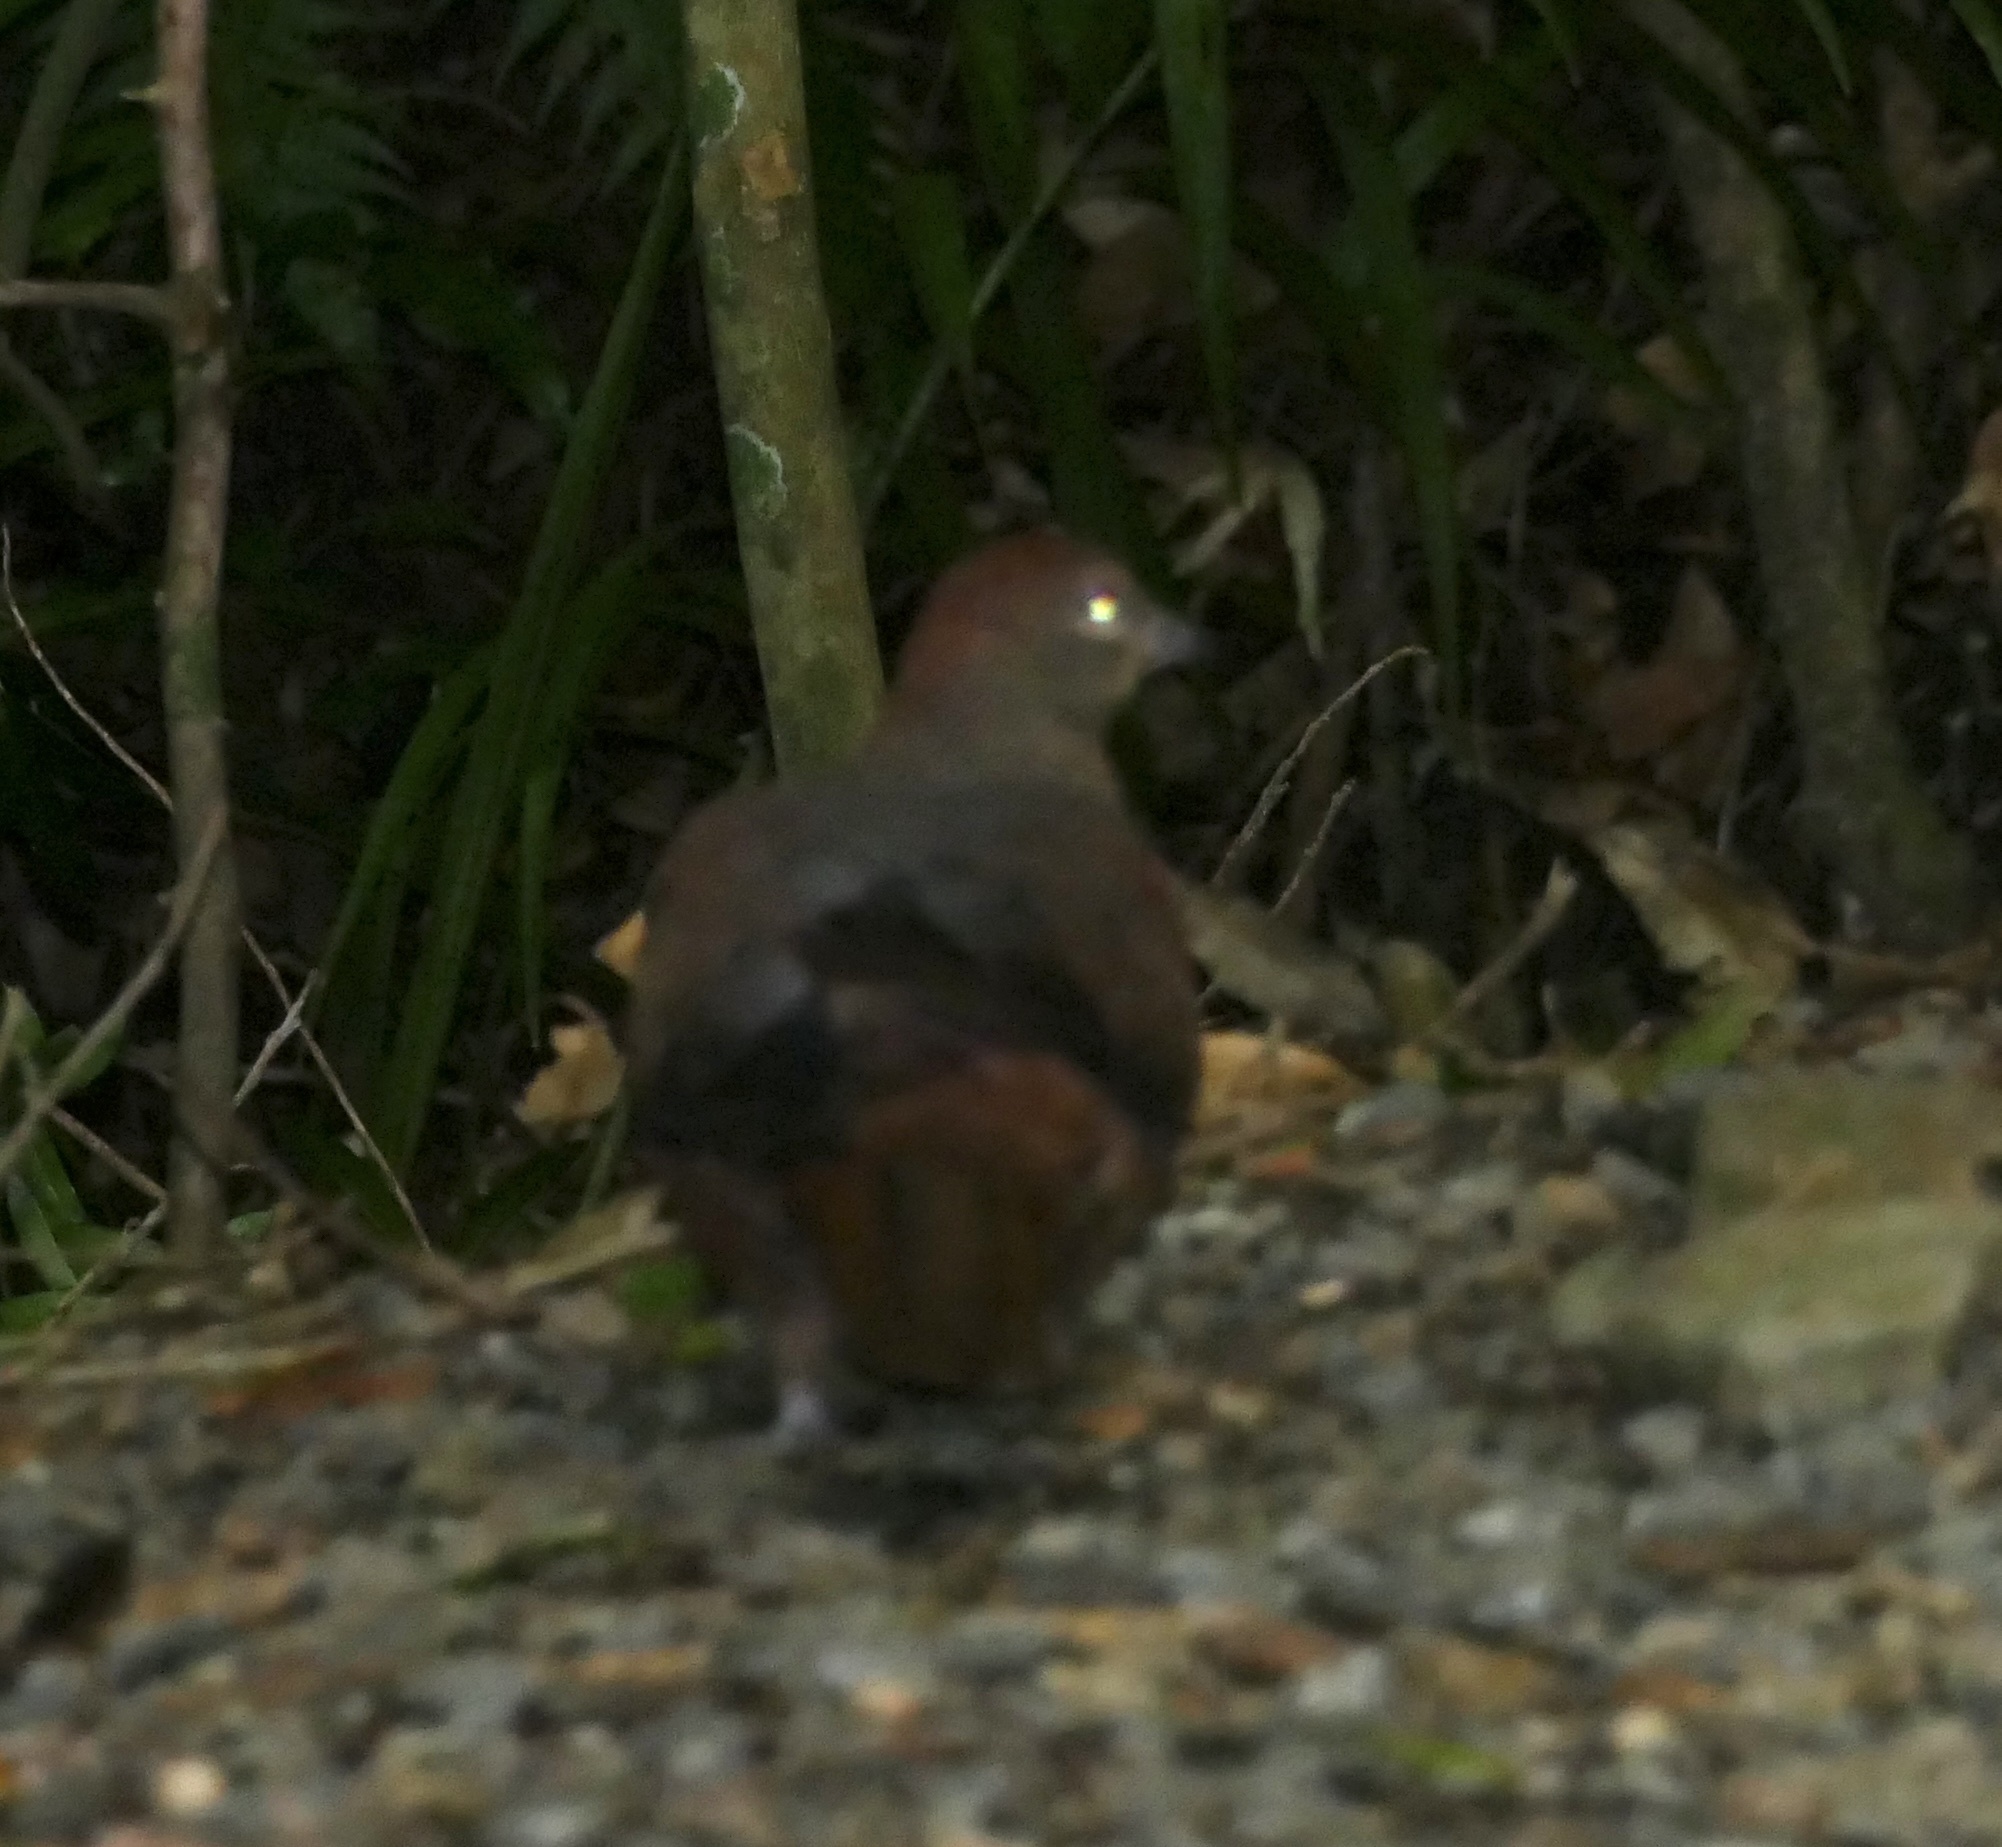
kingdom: Animalia
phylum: Chordata
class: Aves
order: Columbiformes
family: Columbidae
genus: Macropygia
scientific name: Macropygia phasianella
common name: Brown cuckoo-dove
